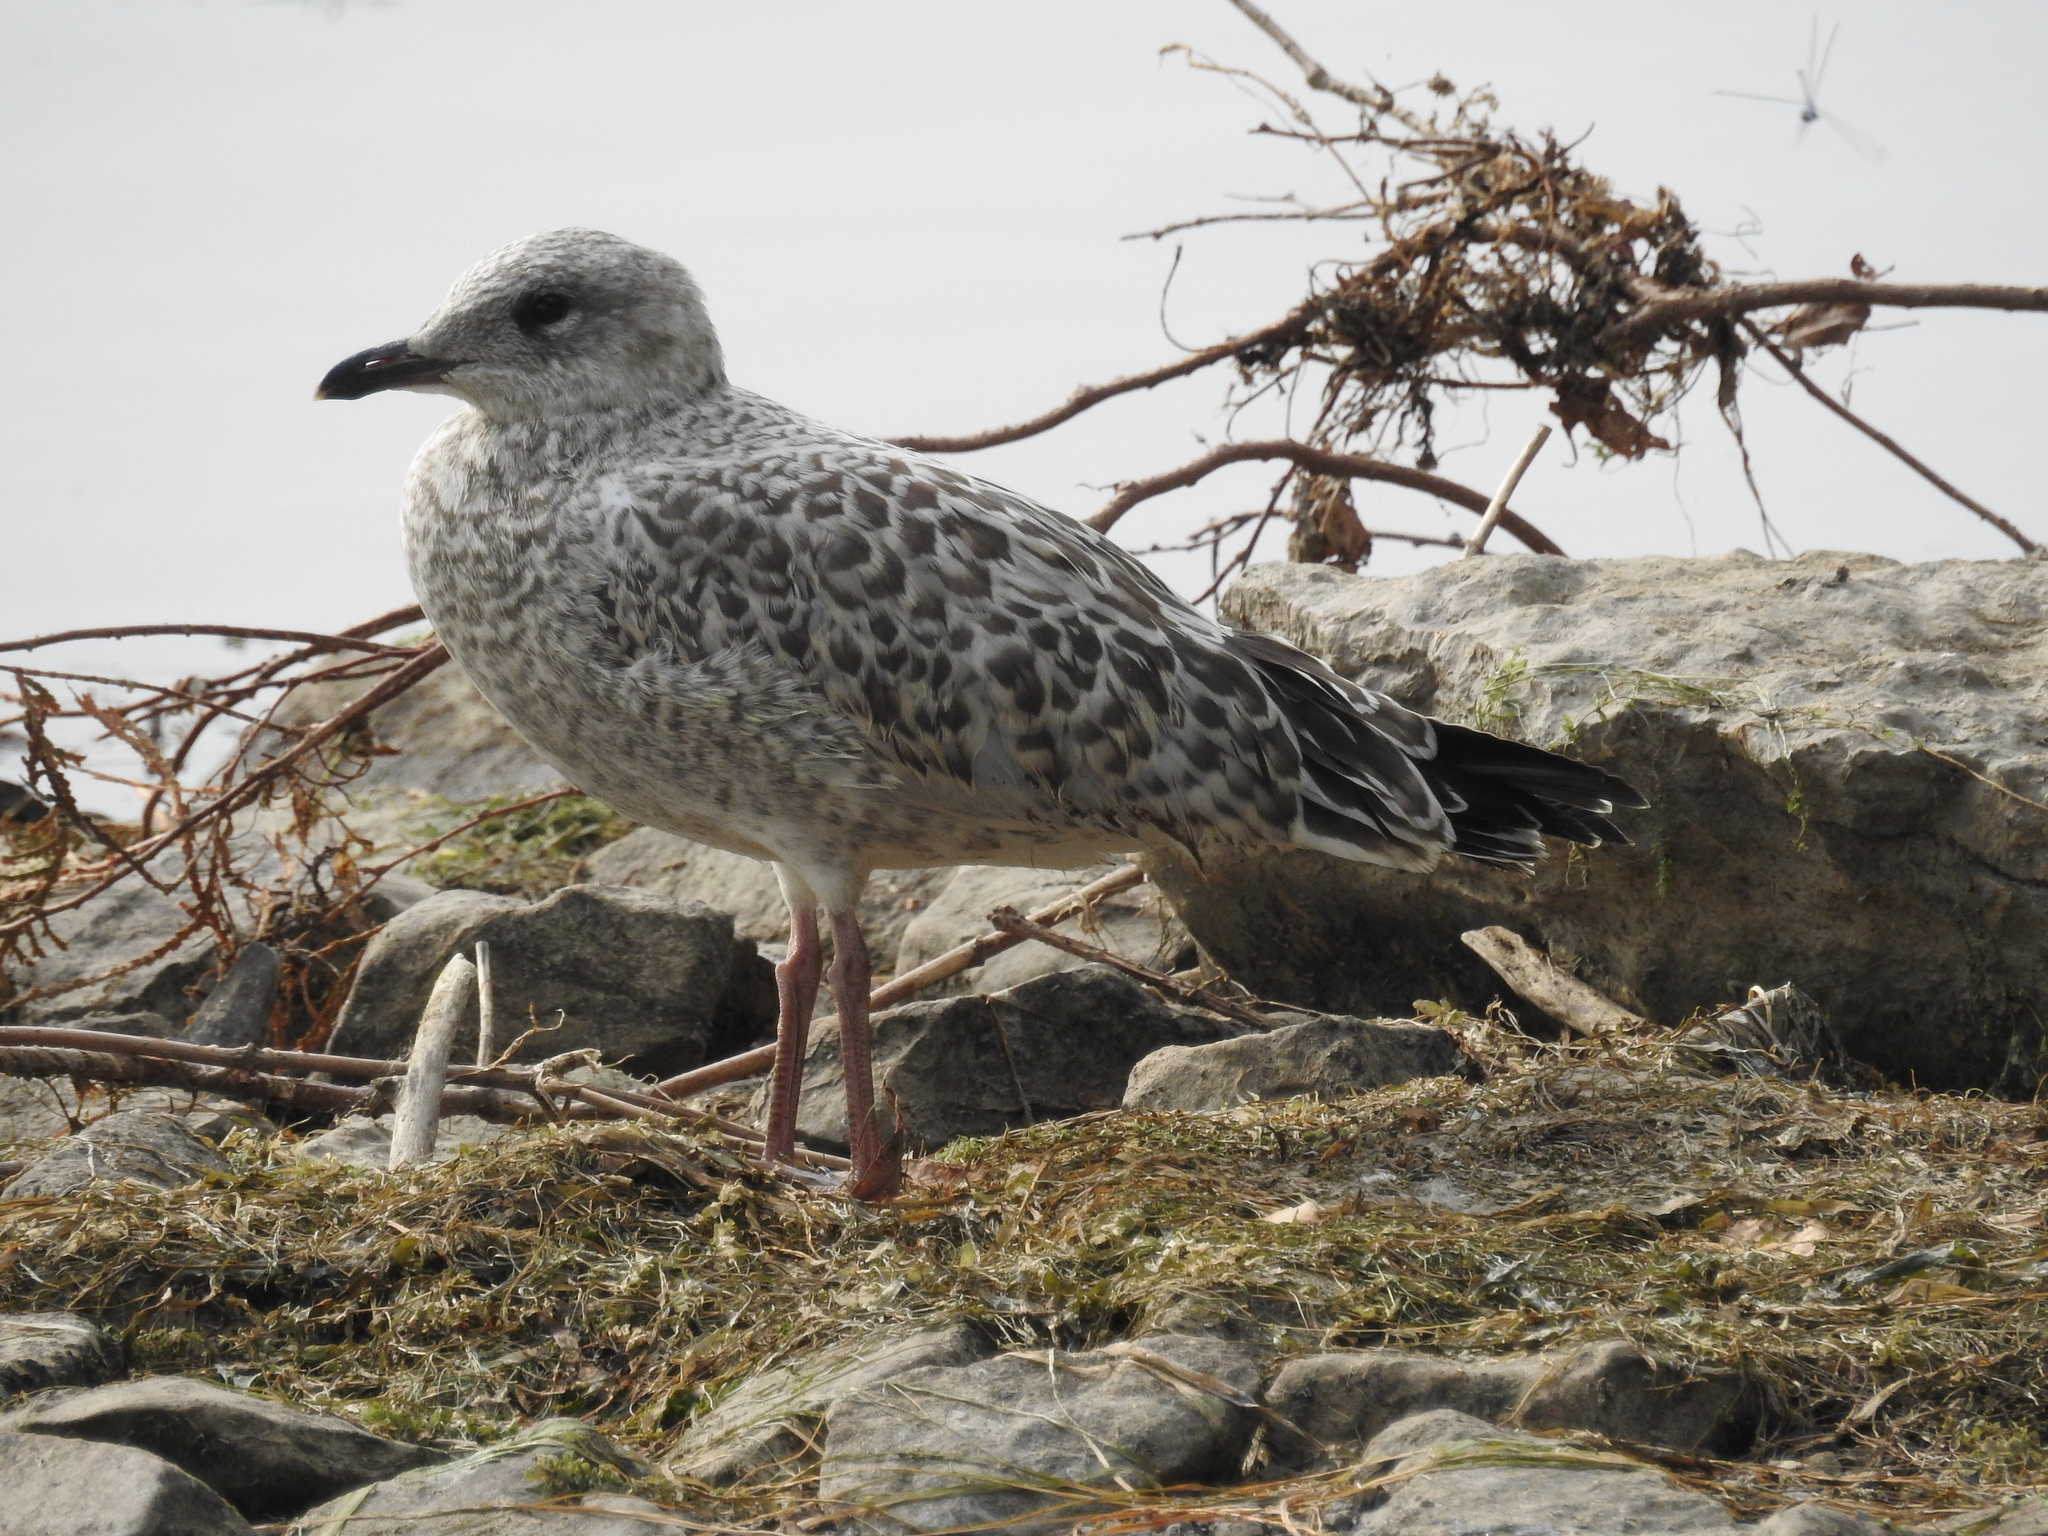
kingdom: Animalia
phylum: Chordata
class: Aves
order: Charadriiformes
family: Laridae
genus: Larus
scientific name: Larus delawarensis
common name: Ring-billed gull
